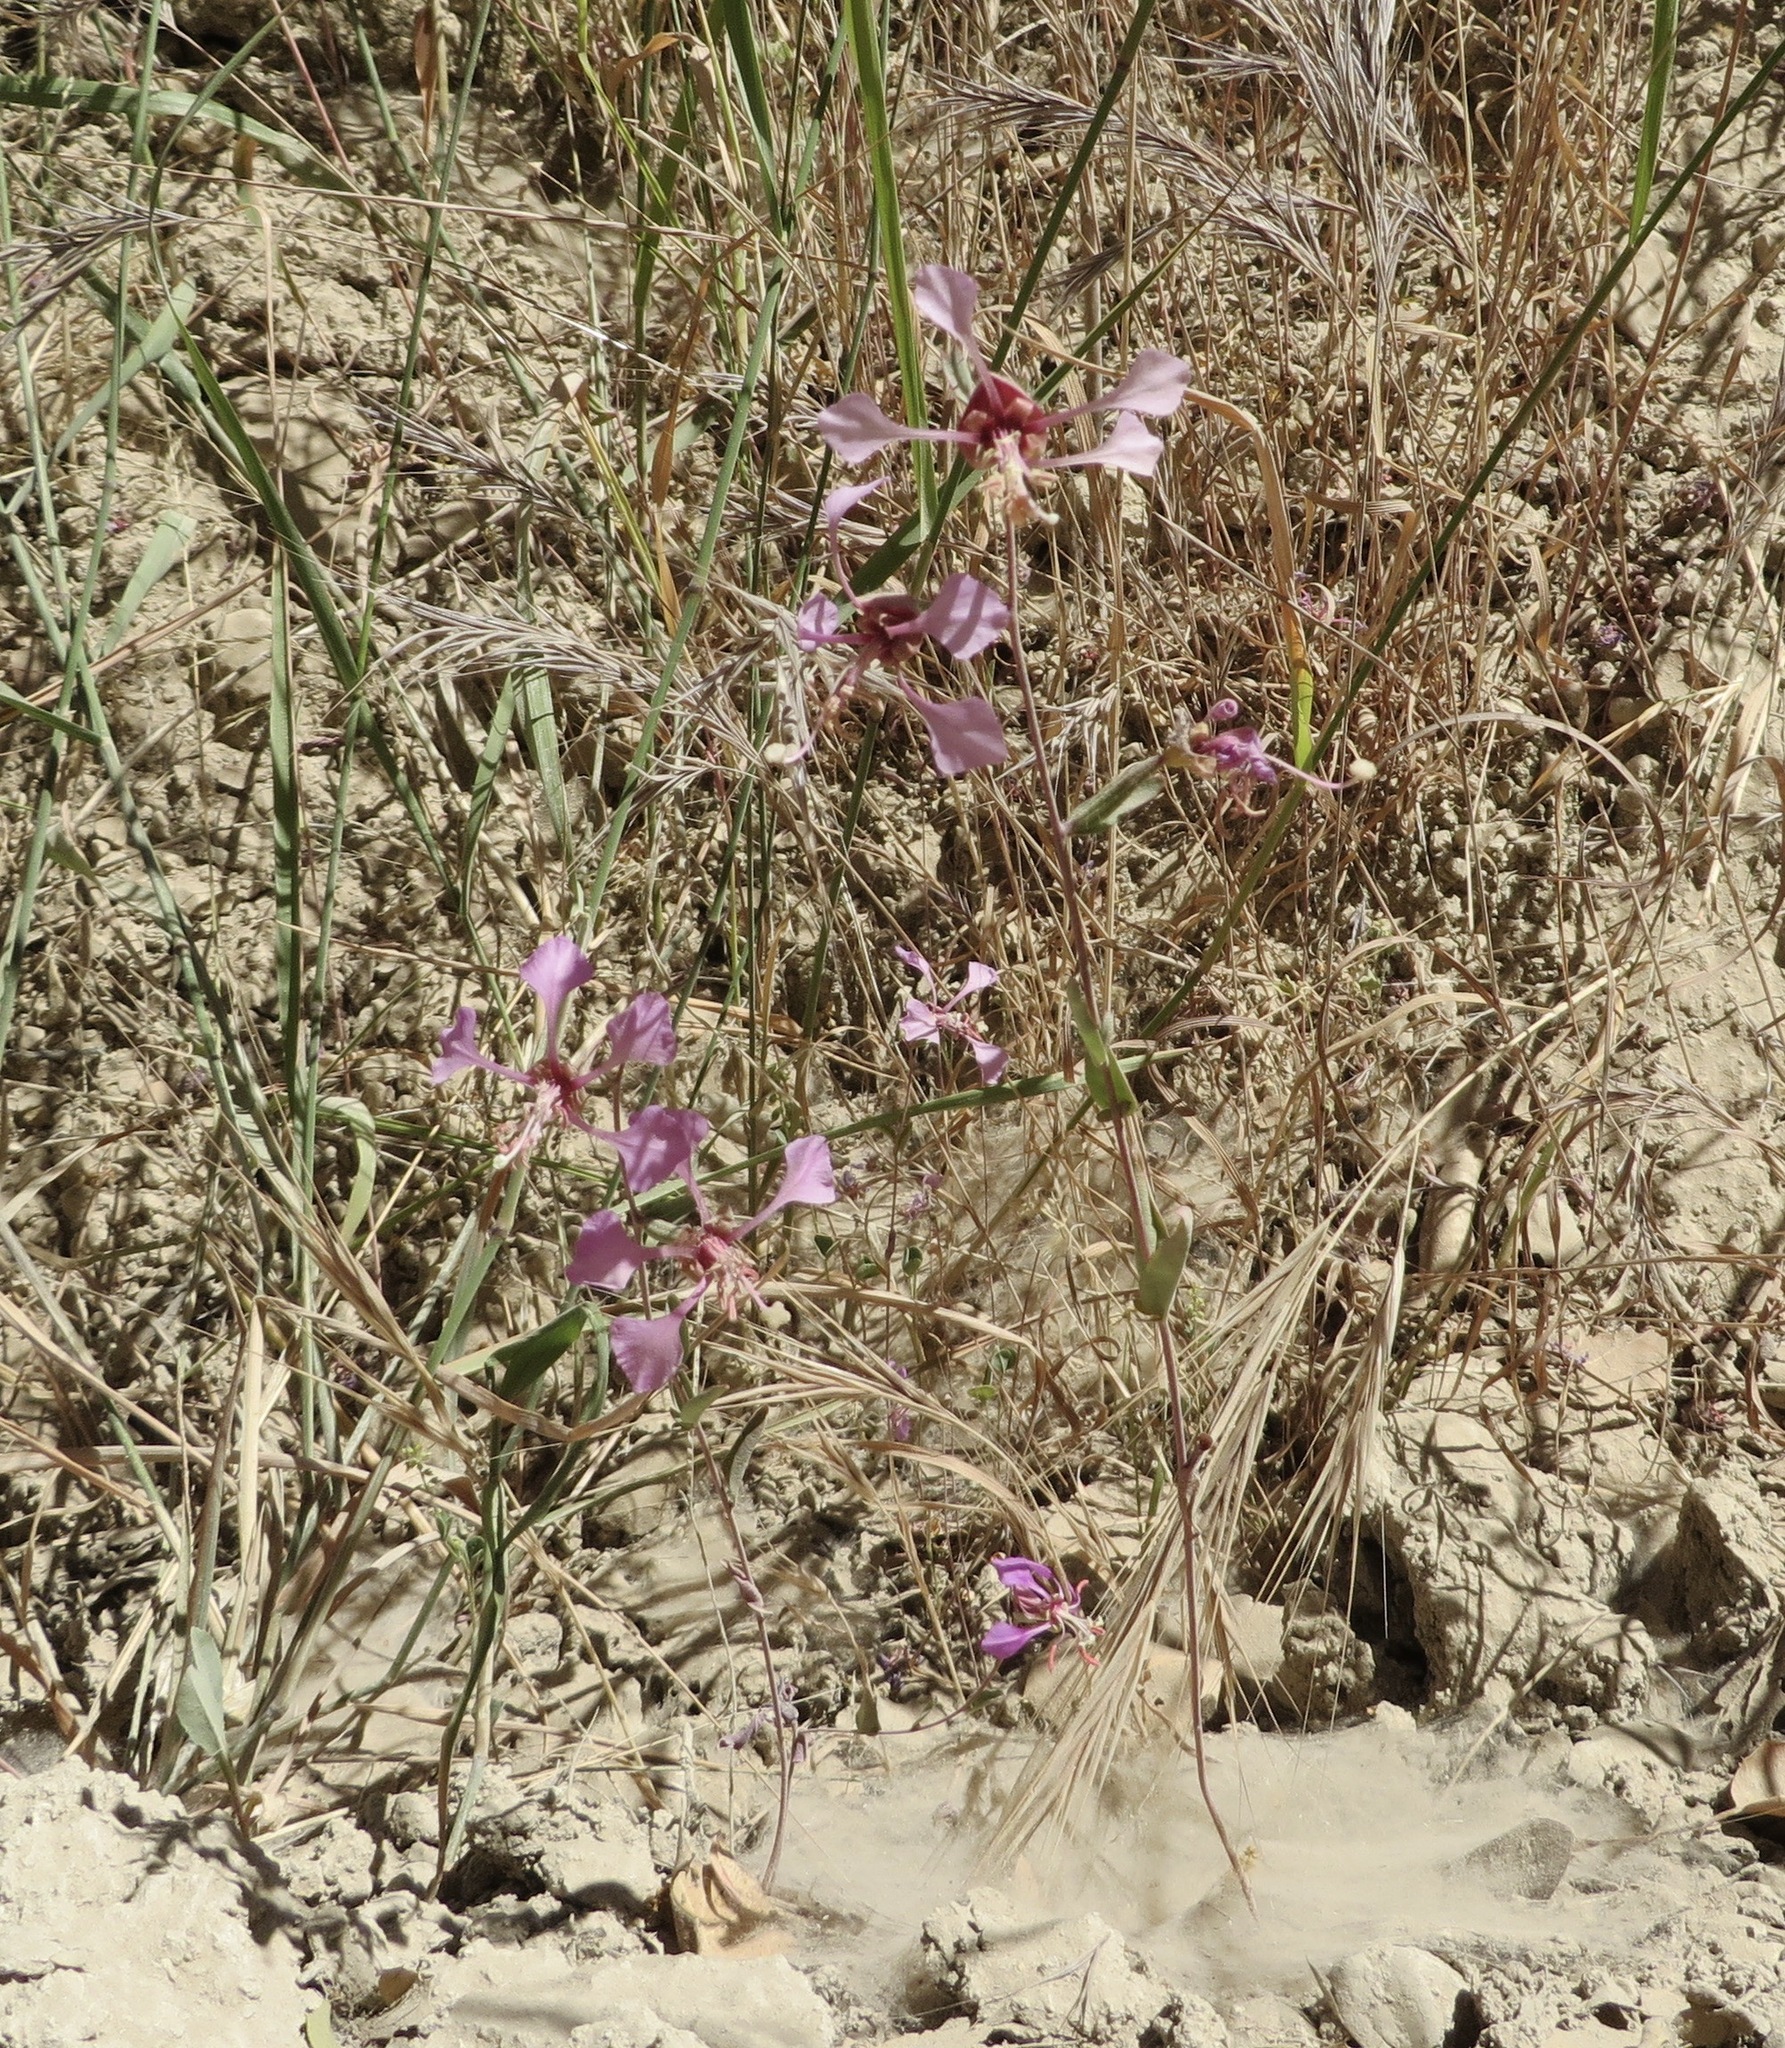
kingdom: Plantae
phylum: Tracheophyta
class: Magnoliopsida
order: Myrtales
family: Onagraceae
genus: Clarkia
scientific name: Clarkia unguiculata
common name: Clarkia
